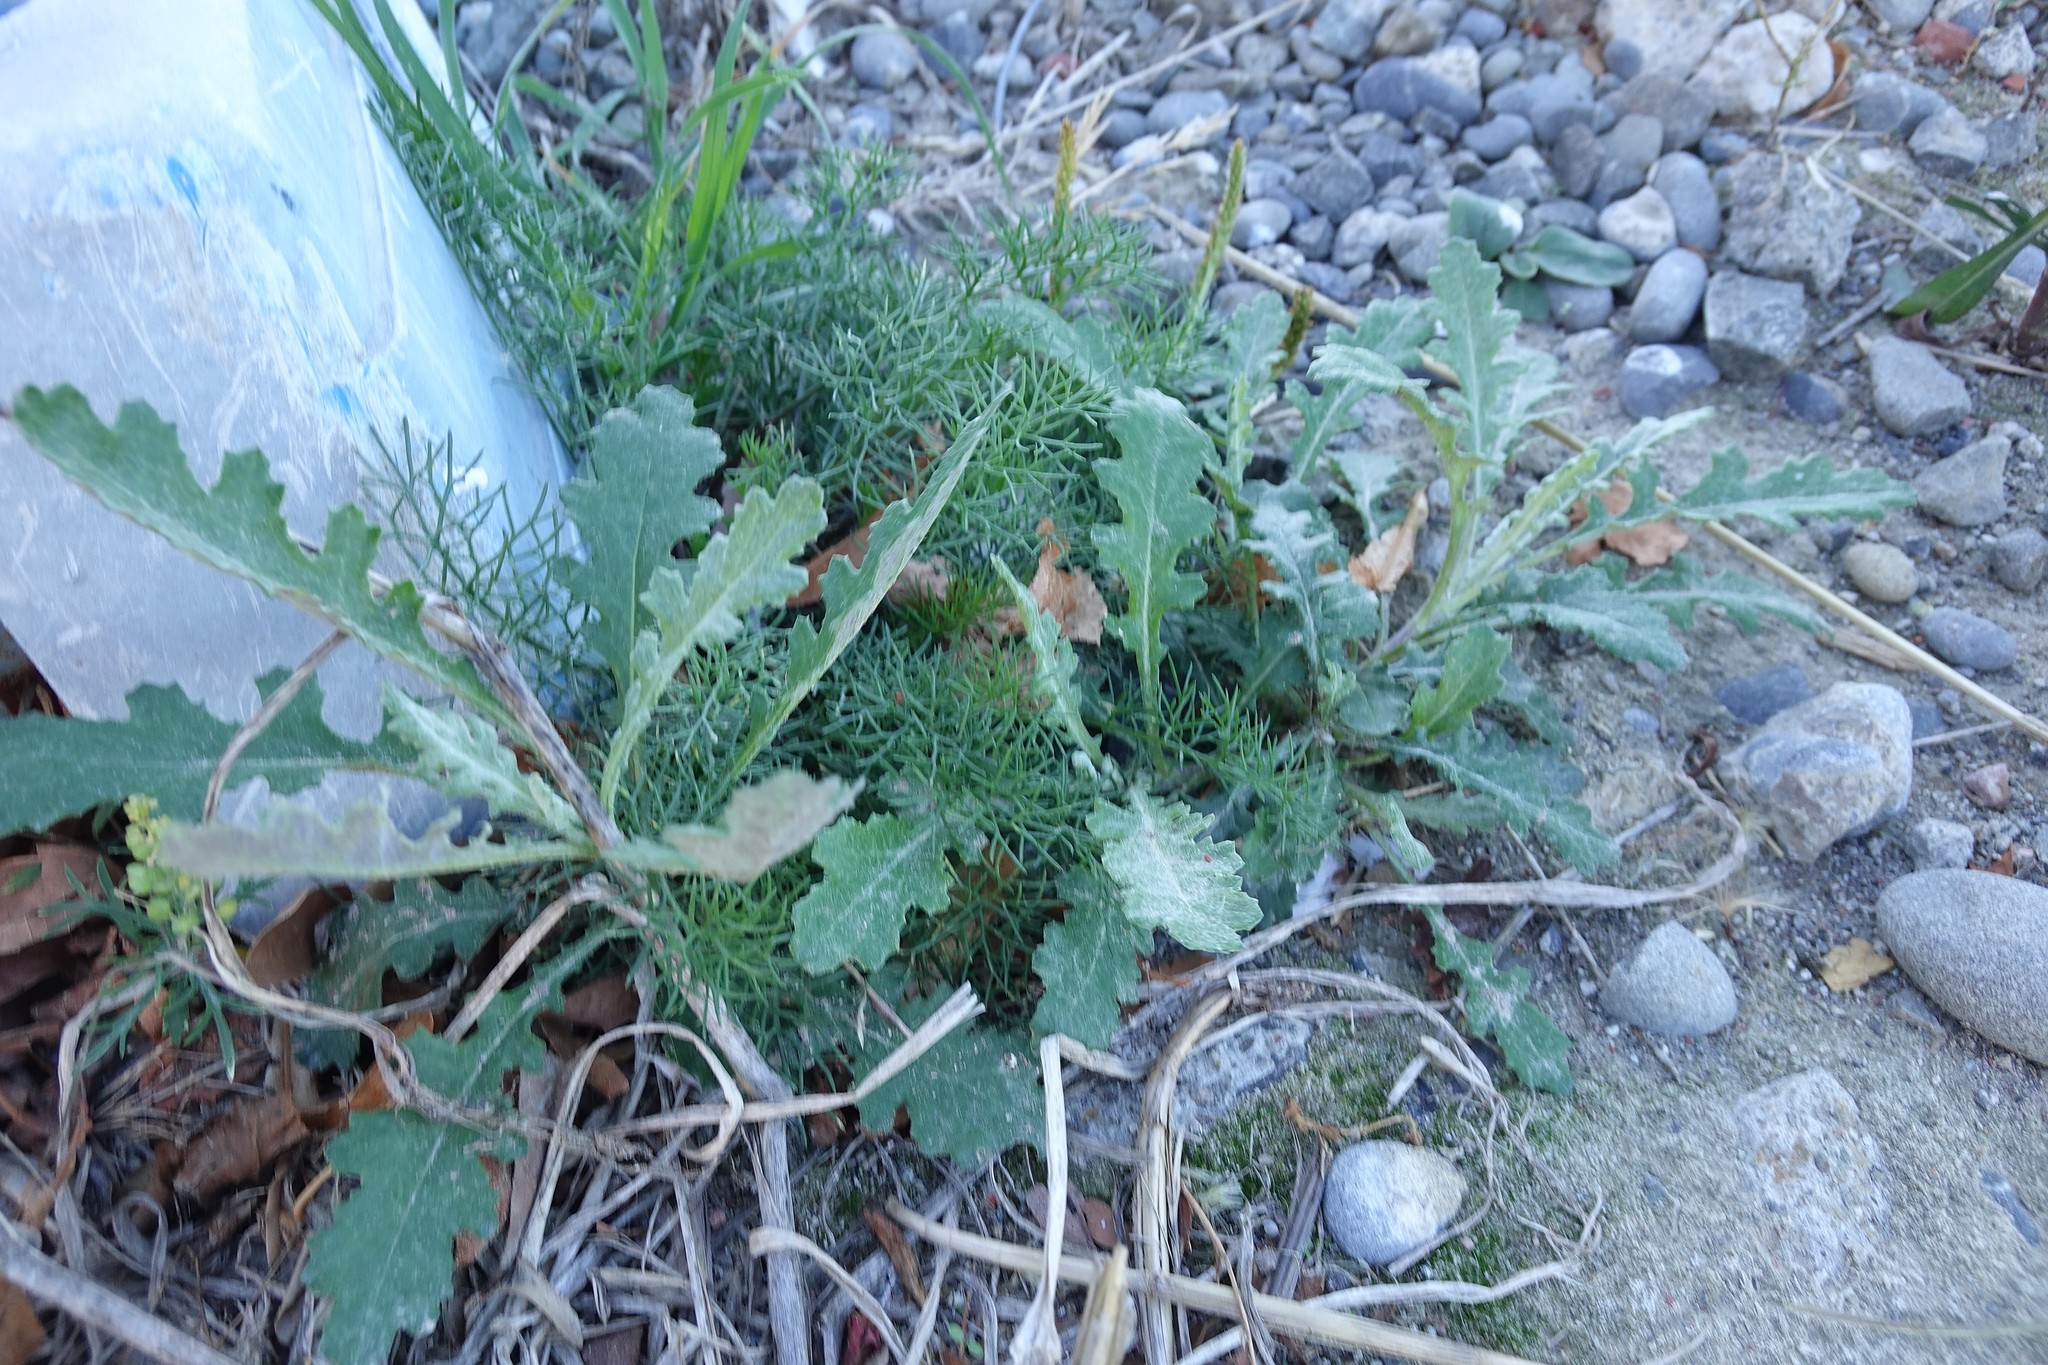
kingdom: Plantae
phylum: Tracheophyta
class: Magnoliopsida
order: Asterales
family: Asteraceae
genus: Senecio
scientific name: Senecio glomeratus
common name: Cutleaf burnweed
